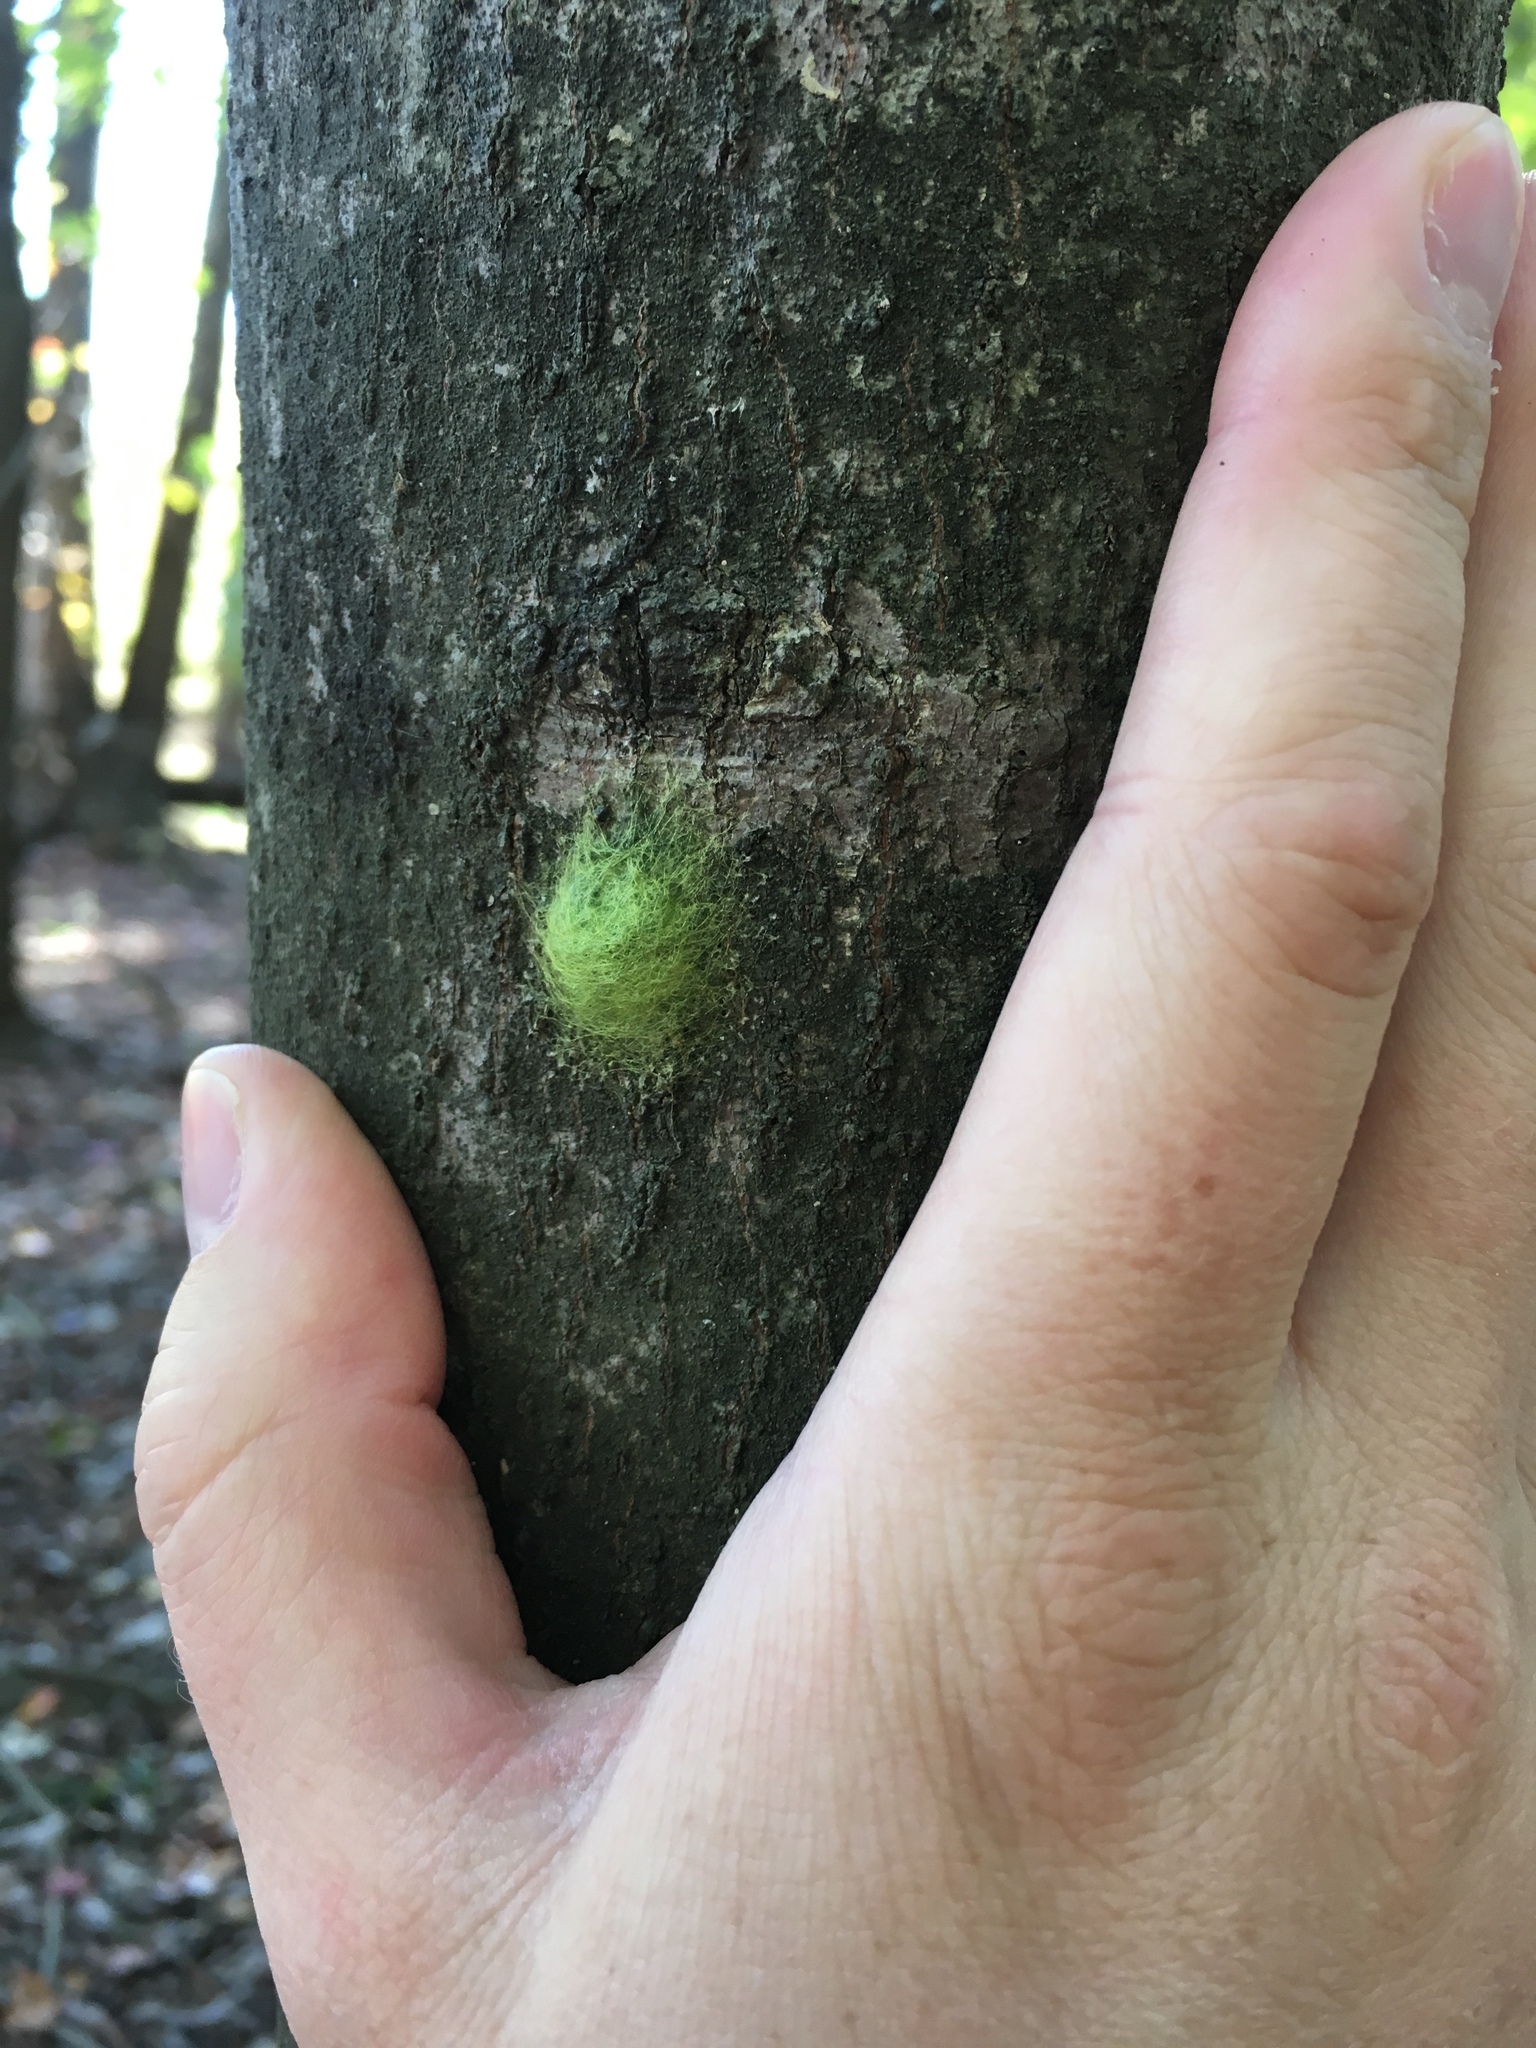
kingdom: Animalia
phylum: Arthropoda
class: Arachnida
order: Araneae
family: Araneidae
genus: Gasteracantha
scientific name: Gasteracantha cancriformis
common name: Orb weavers
